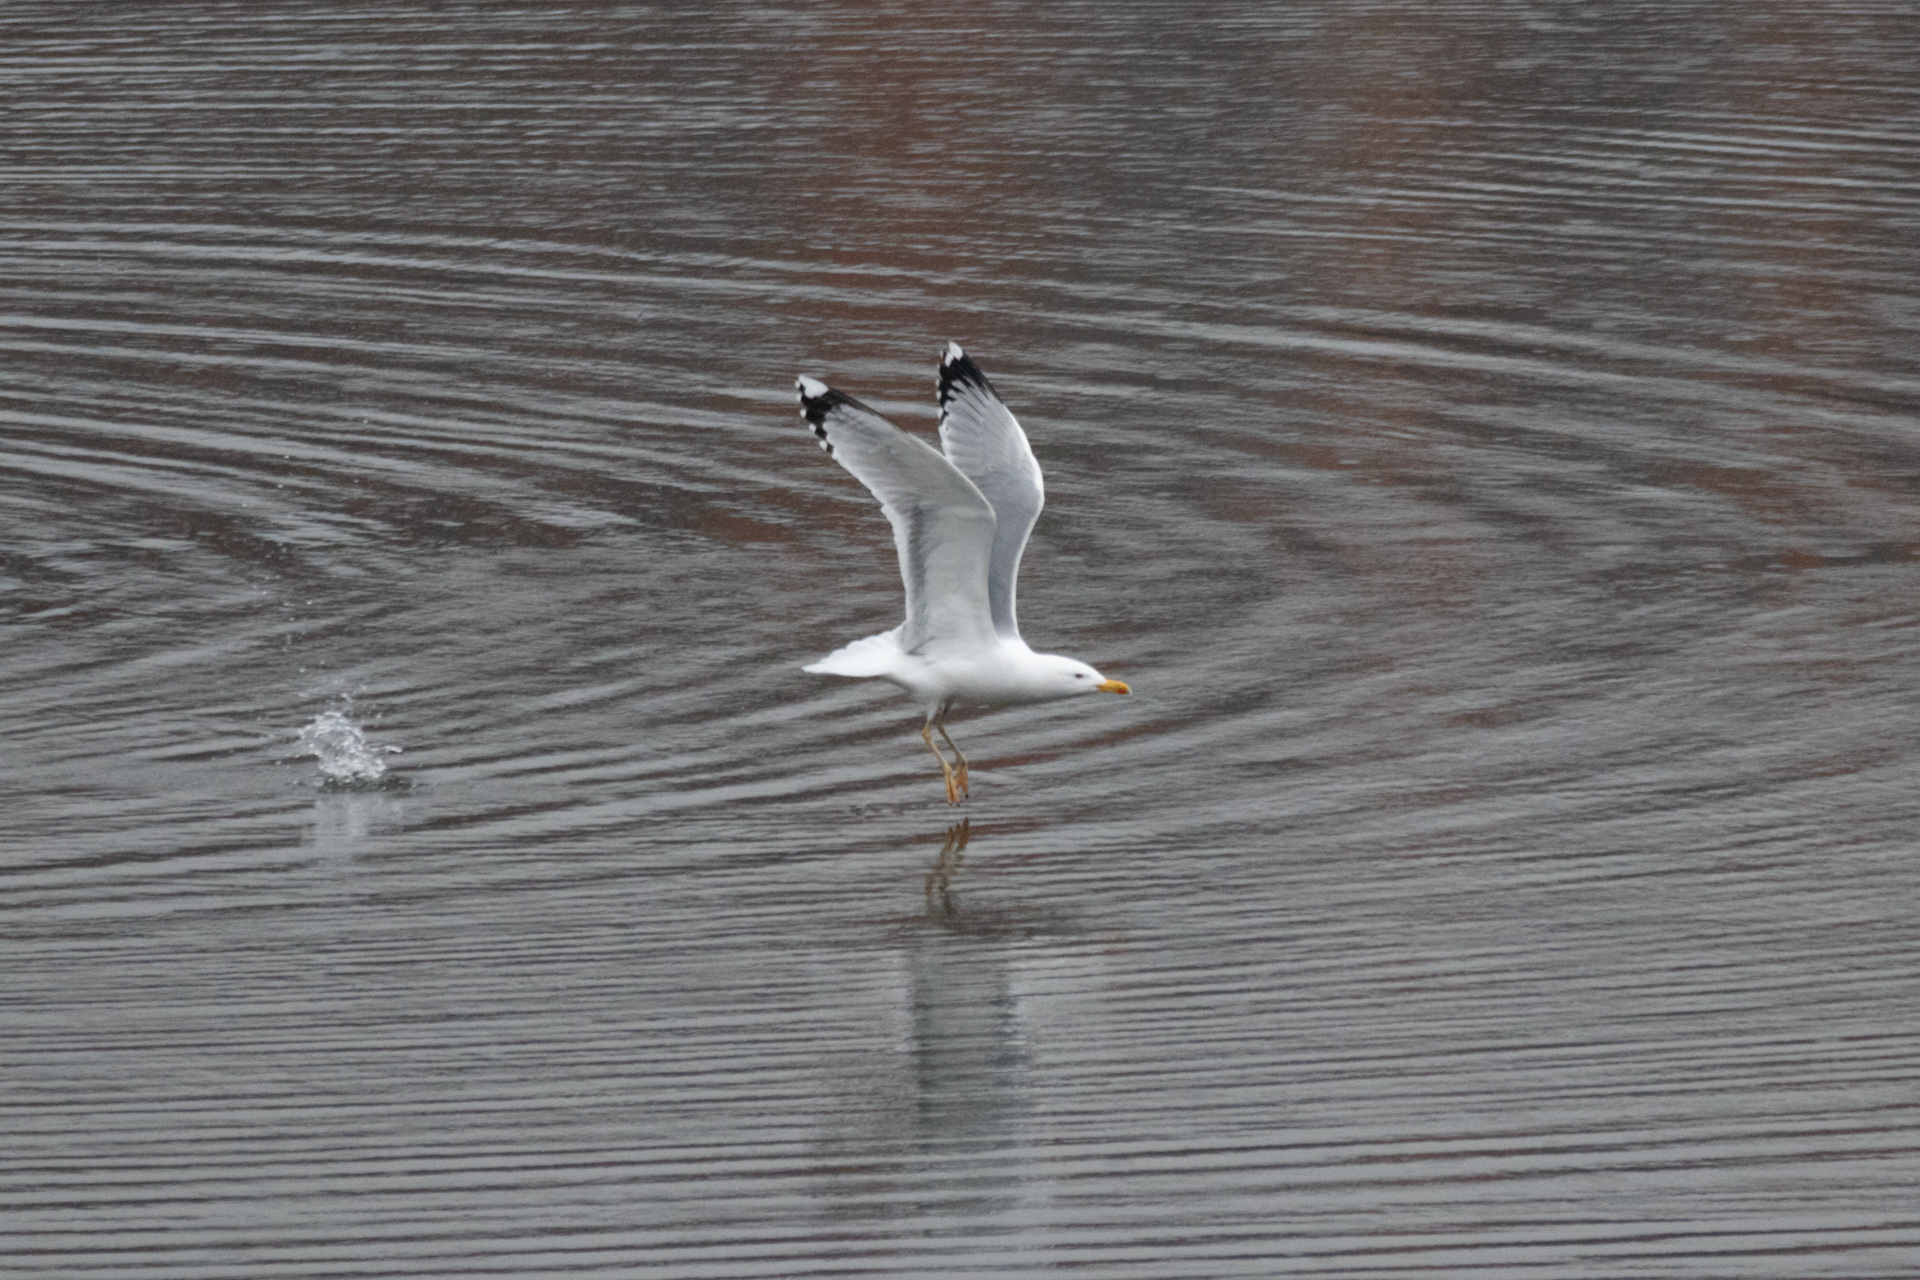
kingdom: Animalia
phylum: Chordata
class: Aves
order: Charadriiformes
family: Laridae
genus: Larus
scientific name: Larus cachinnans
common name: Caspian gull
